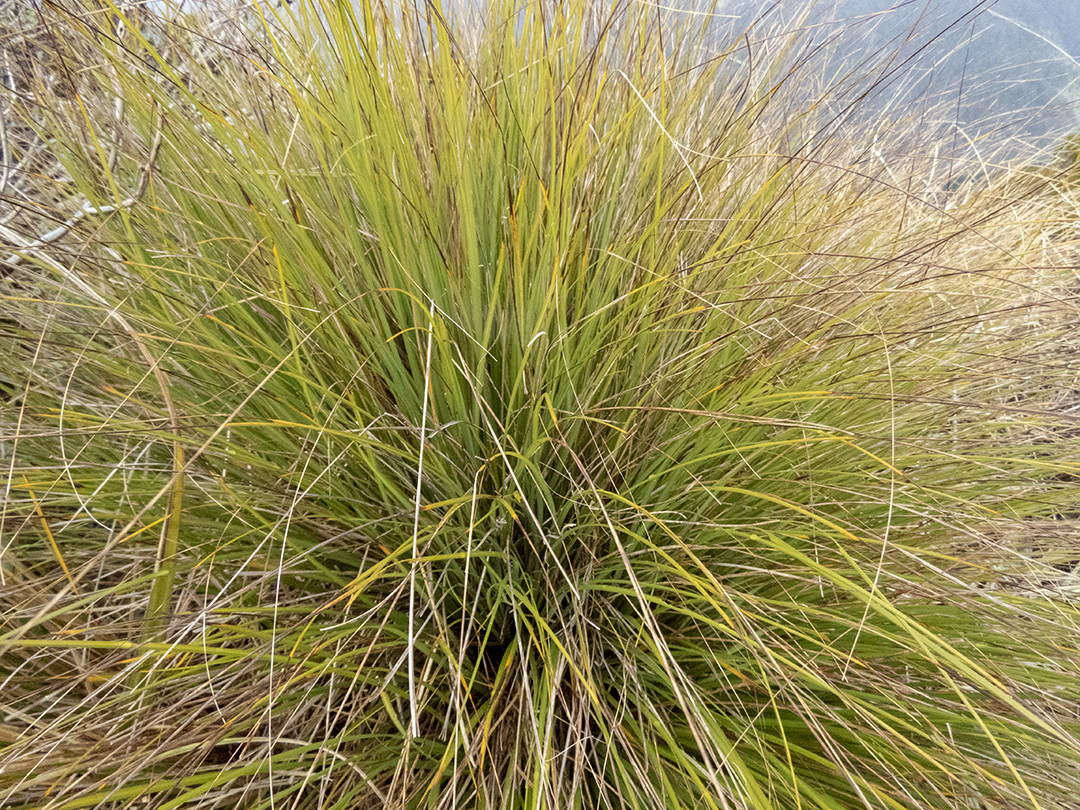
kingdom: Plantae
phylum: Tracheophyta
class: Liliopsida
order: Poales
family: Cyperaceae
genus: Gahnia
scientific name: Gahnia procera
